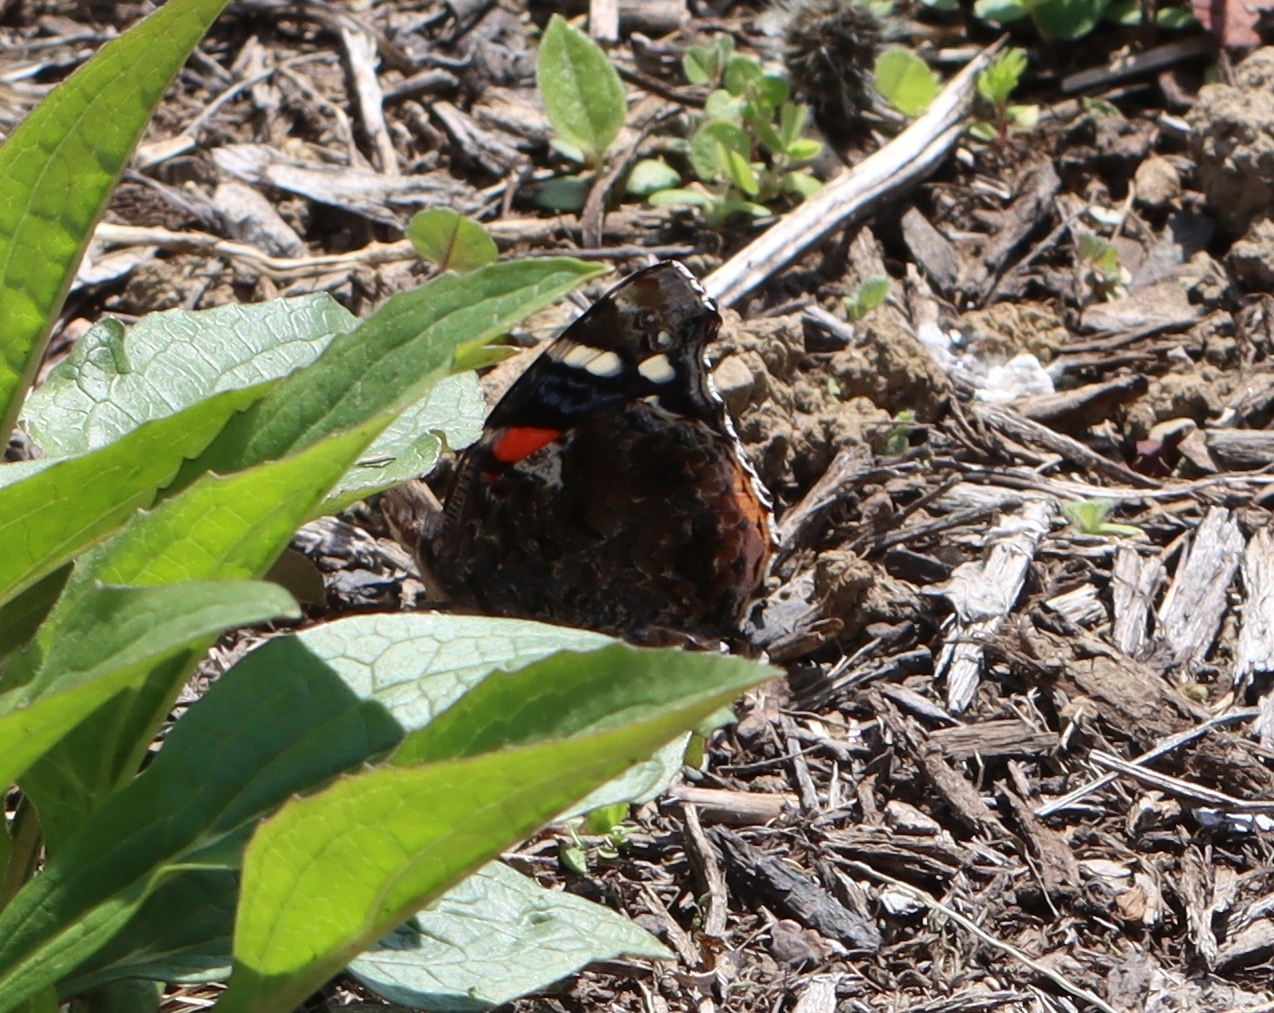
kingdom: Animalia
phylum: Arthropoda
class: Insecta
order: Lepidoptera
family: Nymphalidae
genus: Vanessa
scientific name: Vanessa atalanta
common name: Red admiral
